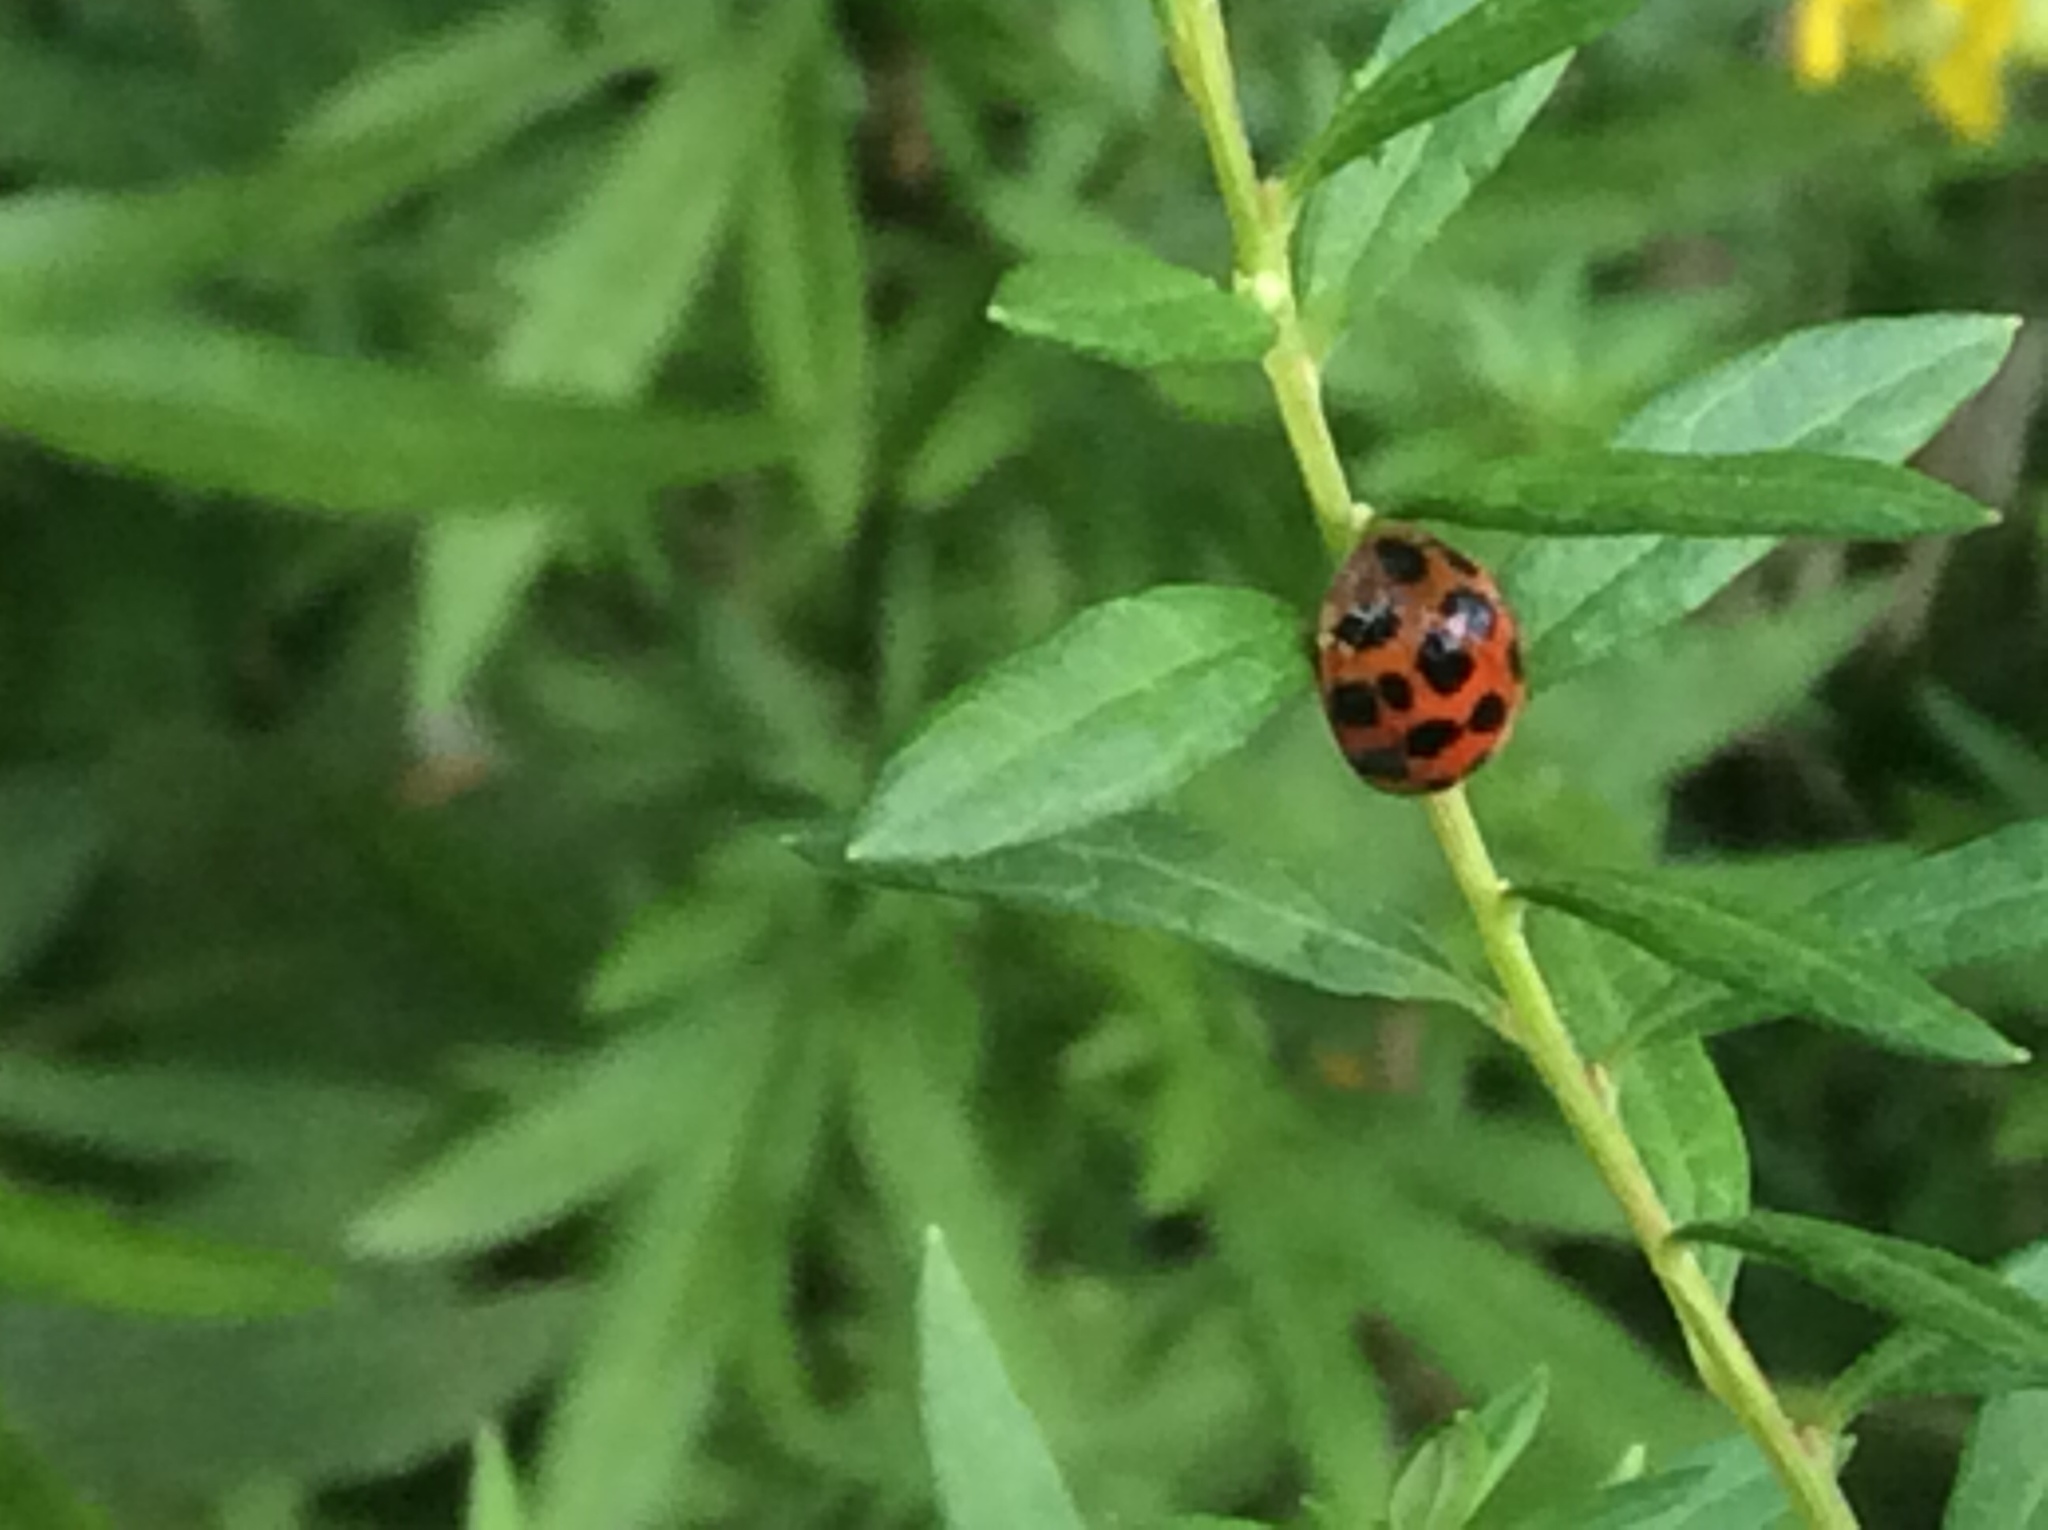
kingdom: Animalia
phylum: Arthropoda
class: Insecta
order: Coleoptera
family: Coccinellidae
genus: Harmonia
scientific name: Harmonia axyridis
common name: Harlequin ladybird
